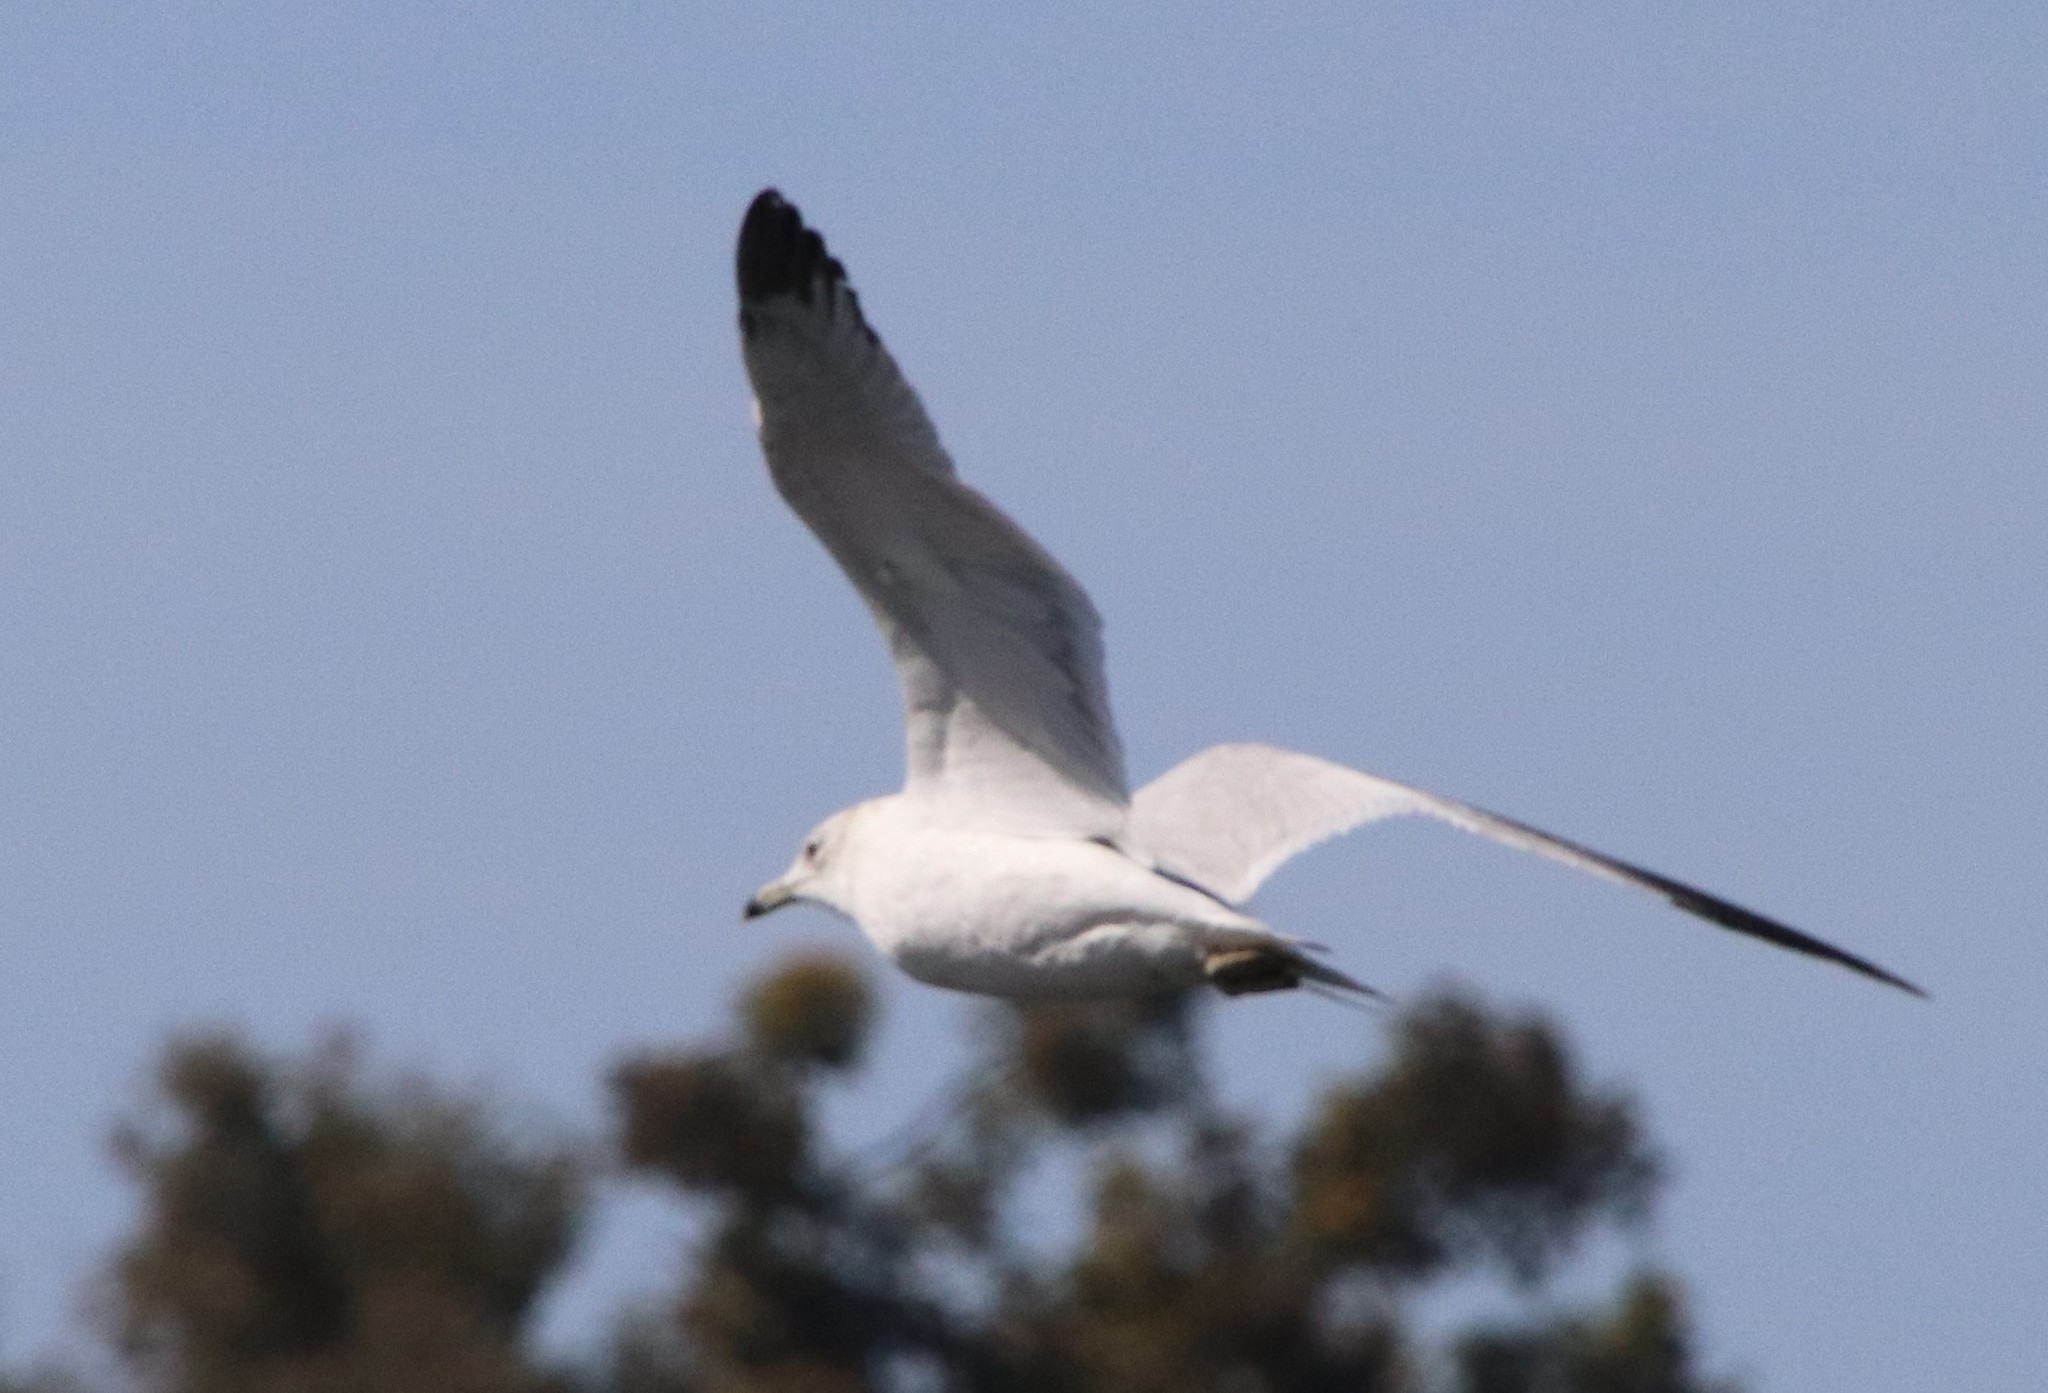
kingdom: Animalia
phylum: Chordata
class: Aves
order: Charadriiformes
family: Laridae
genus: Larus
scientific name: Larus delawarensis
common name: Ring-billed gull
